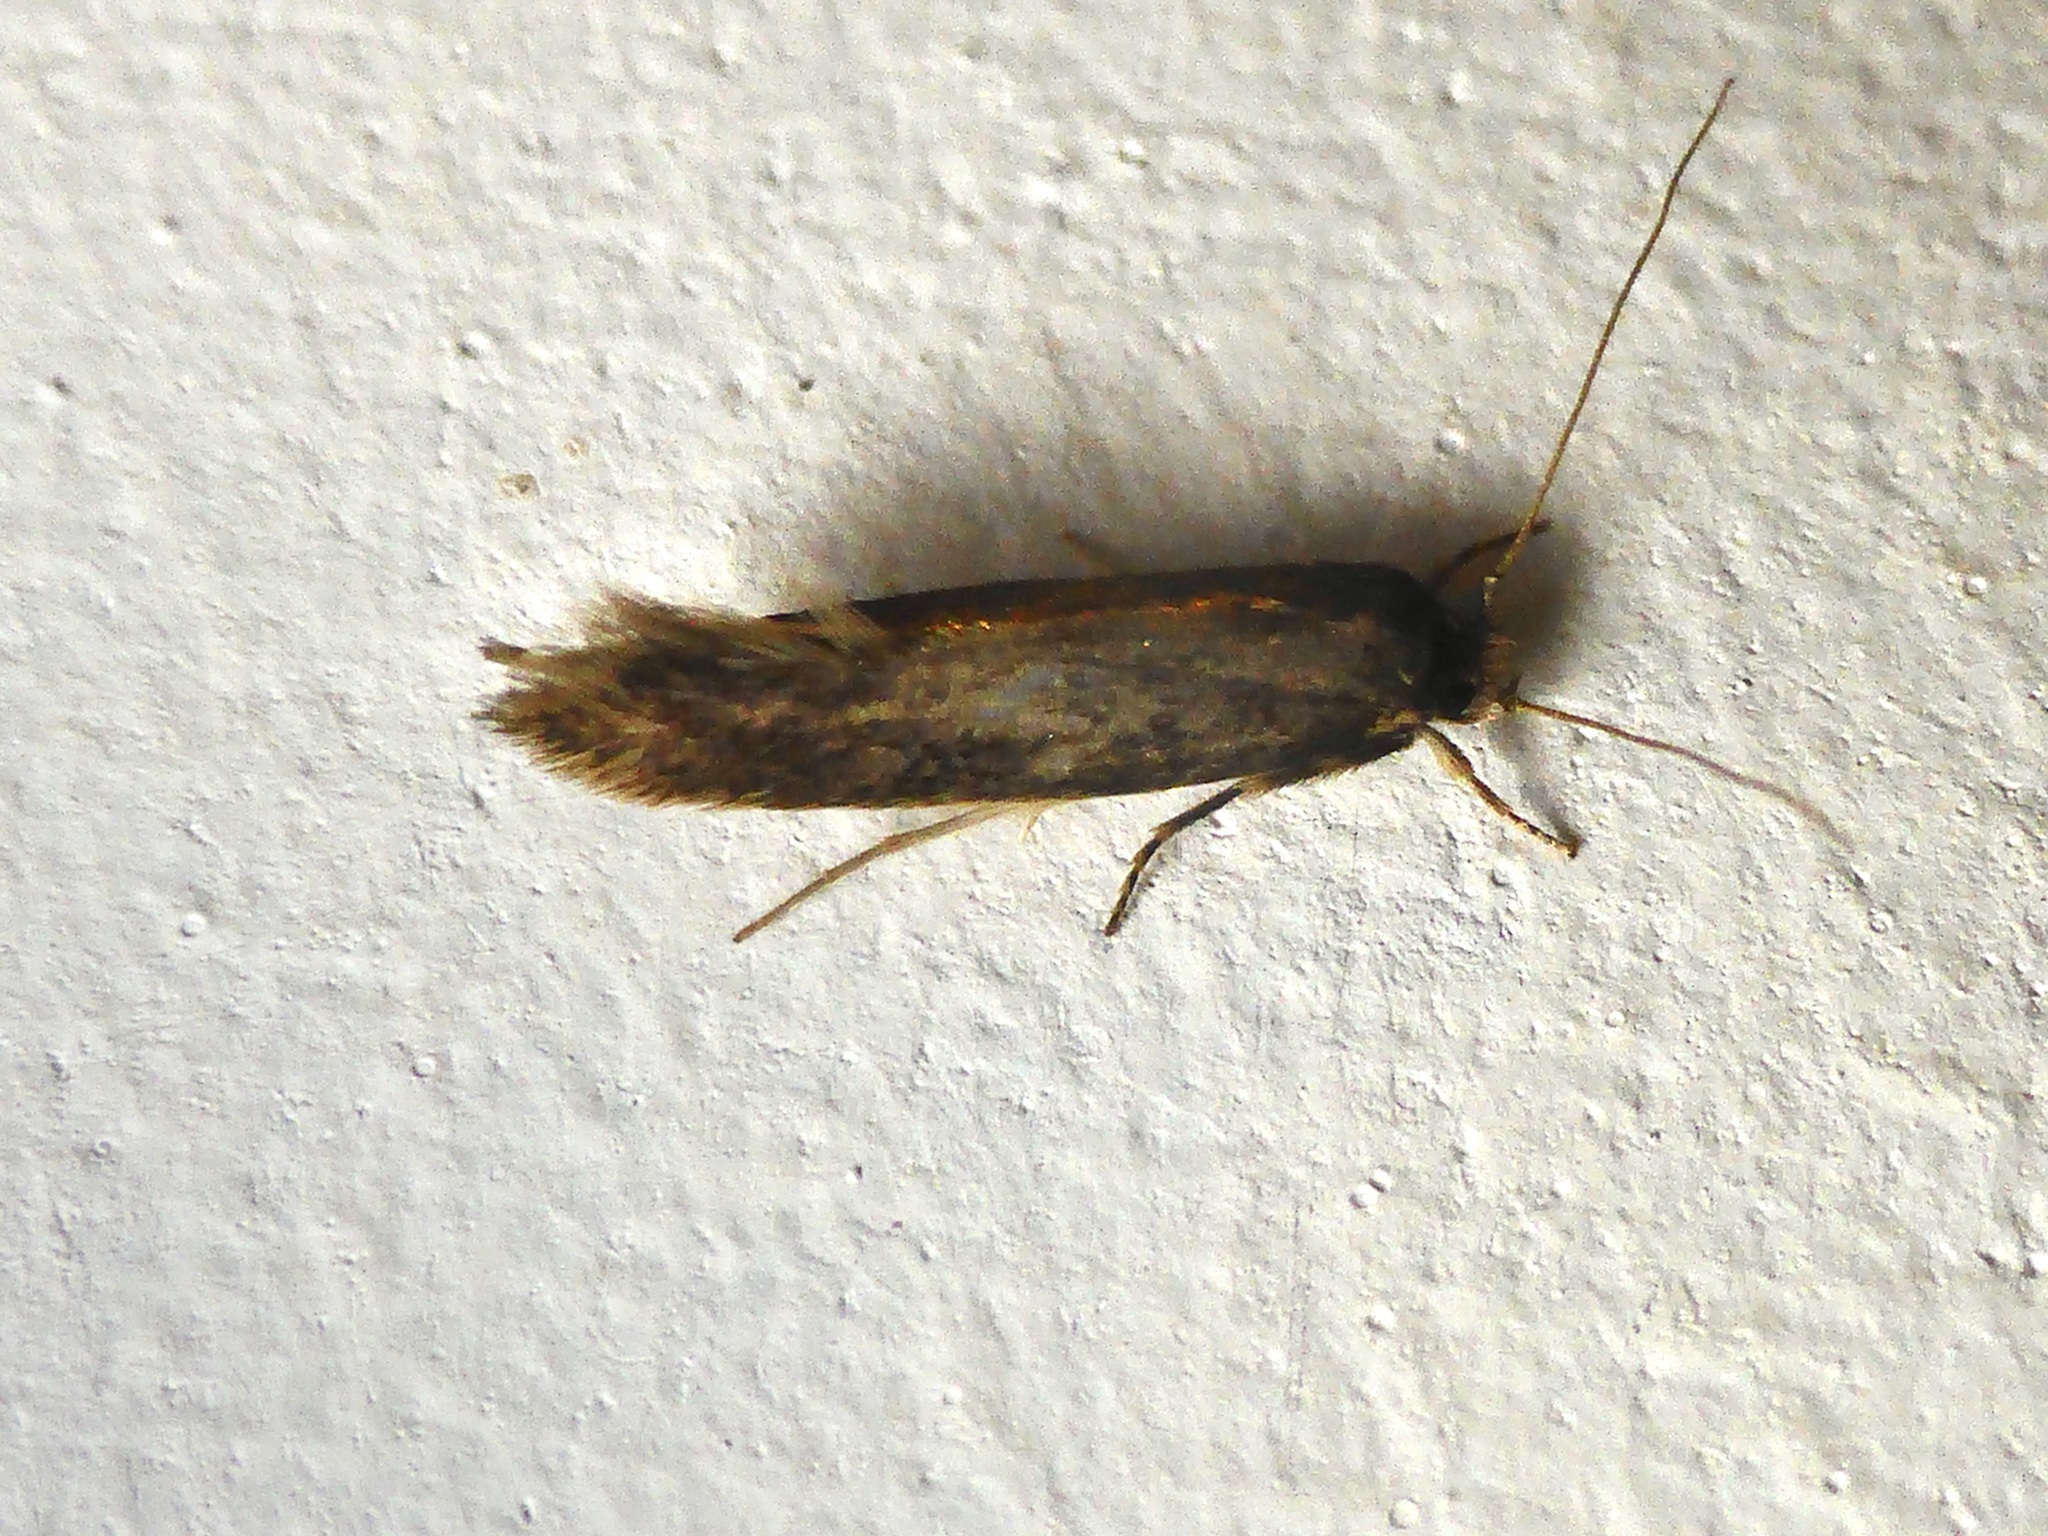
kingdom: Animalia
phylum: Arthropoda
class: Insecta
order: Lepidoptera
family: Tineidae
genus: Opogona
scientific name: Opogona omoscopa
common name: Moth
